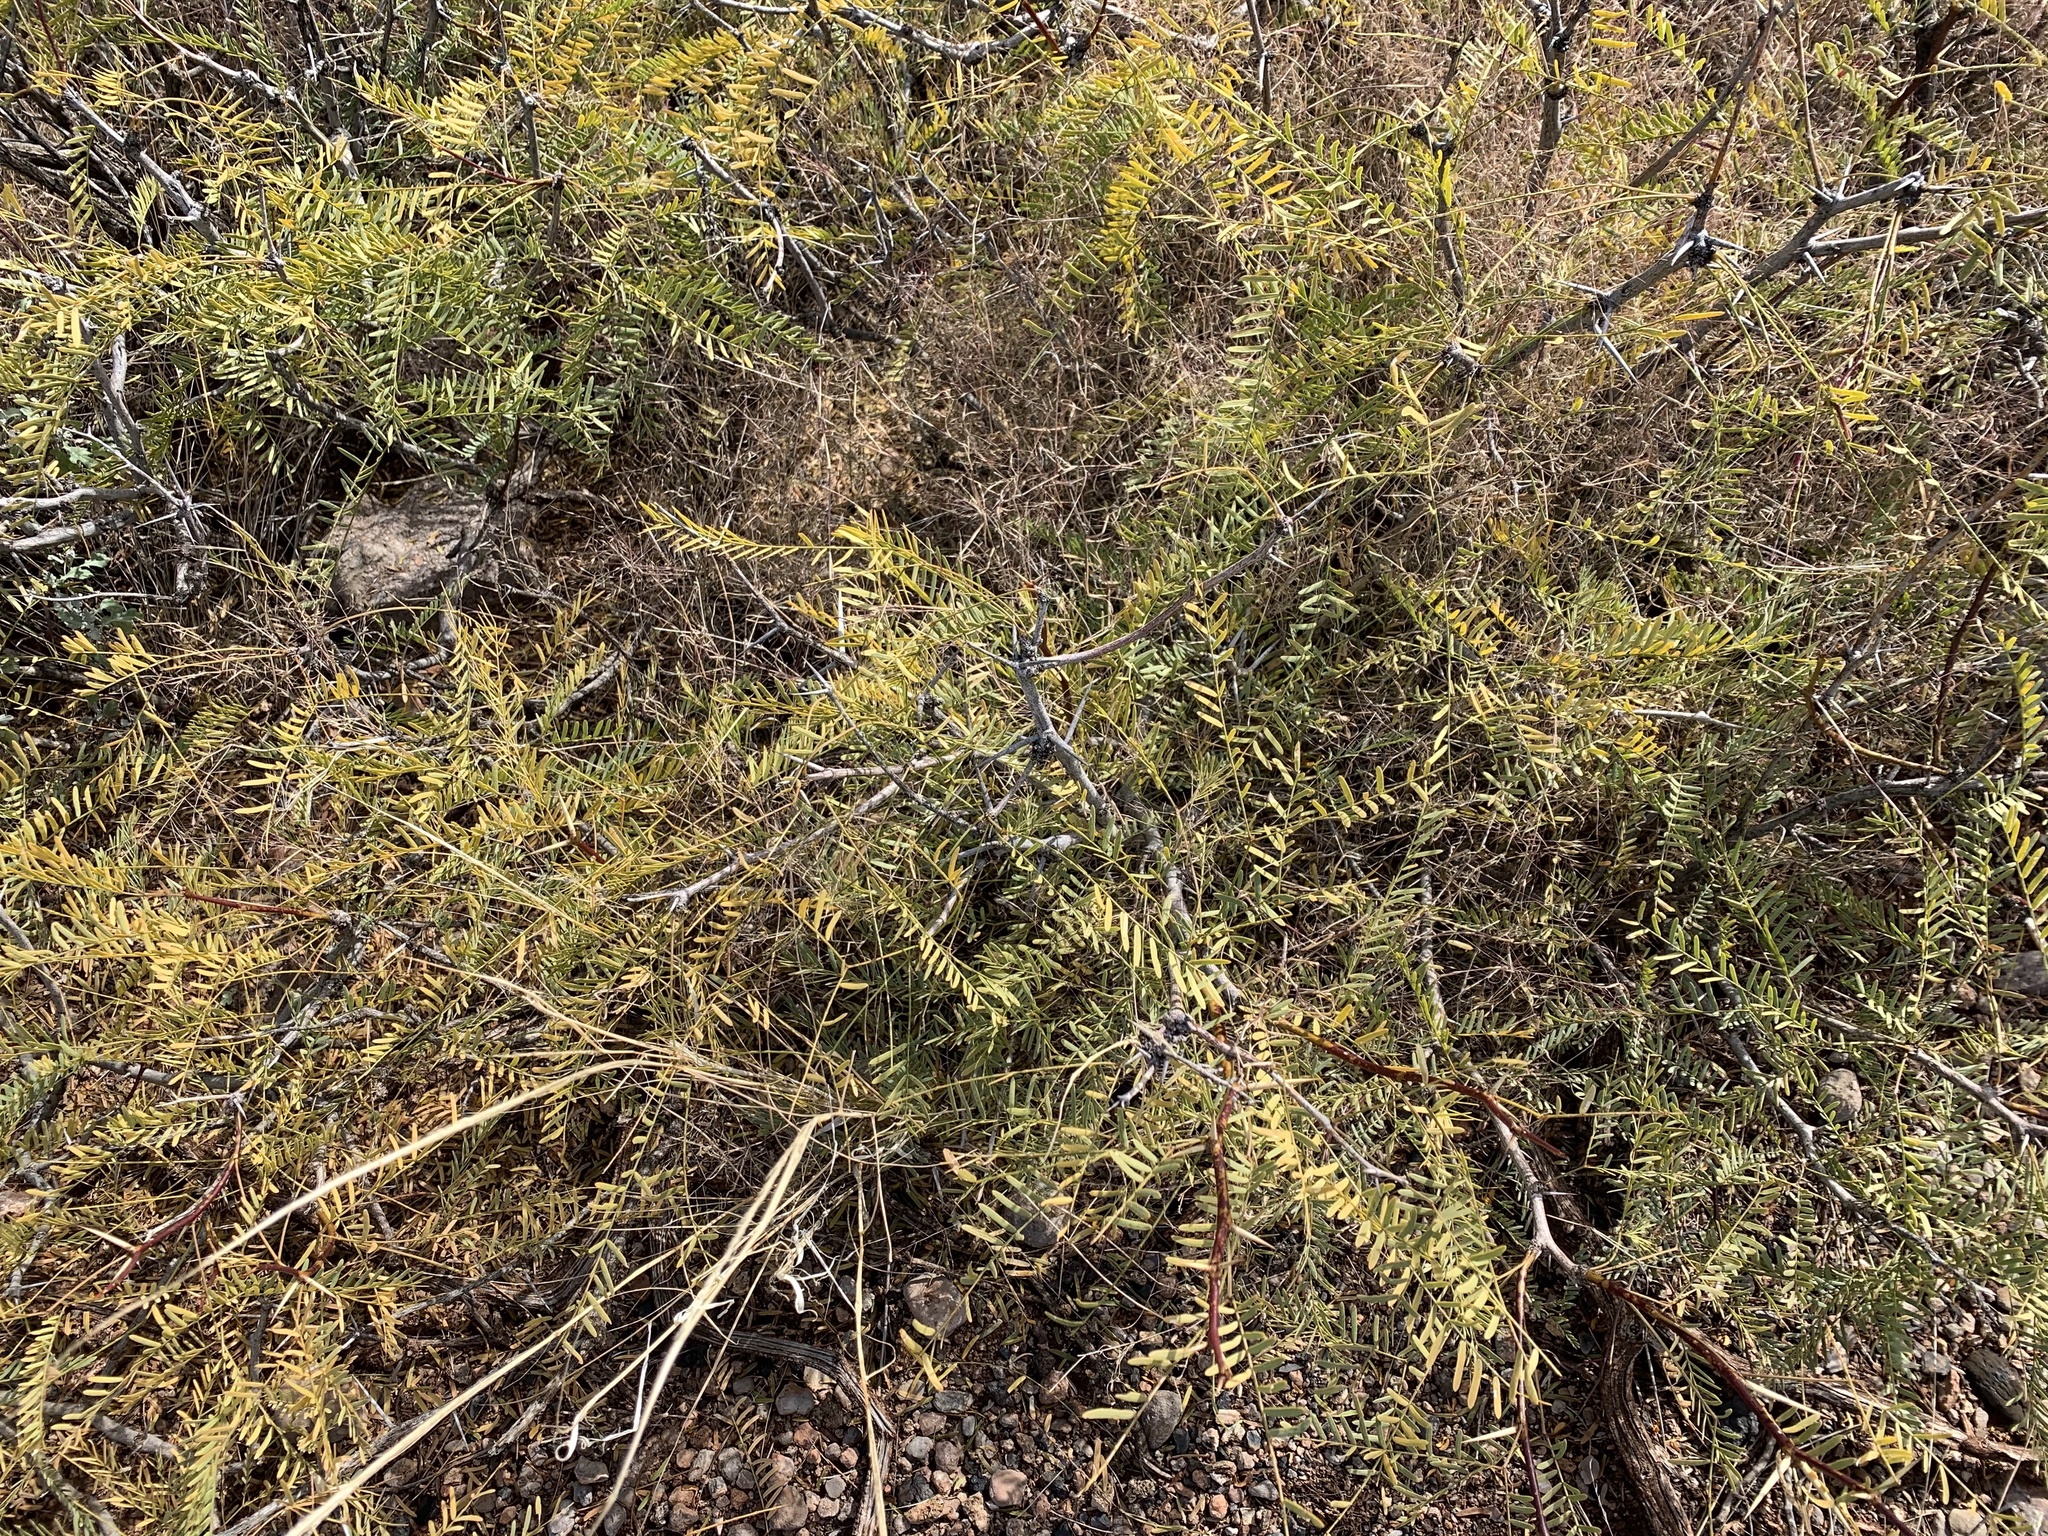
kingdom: Plantae
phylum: Tracheophyta
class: Magnoliopsida
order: Fabales
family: Fabaceae
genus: Prosopis
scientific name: Prosopis glandulosa
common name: Honey mesquite
